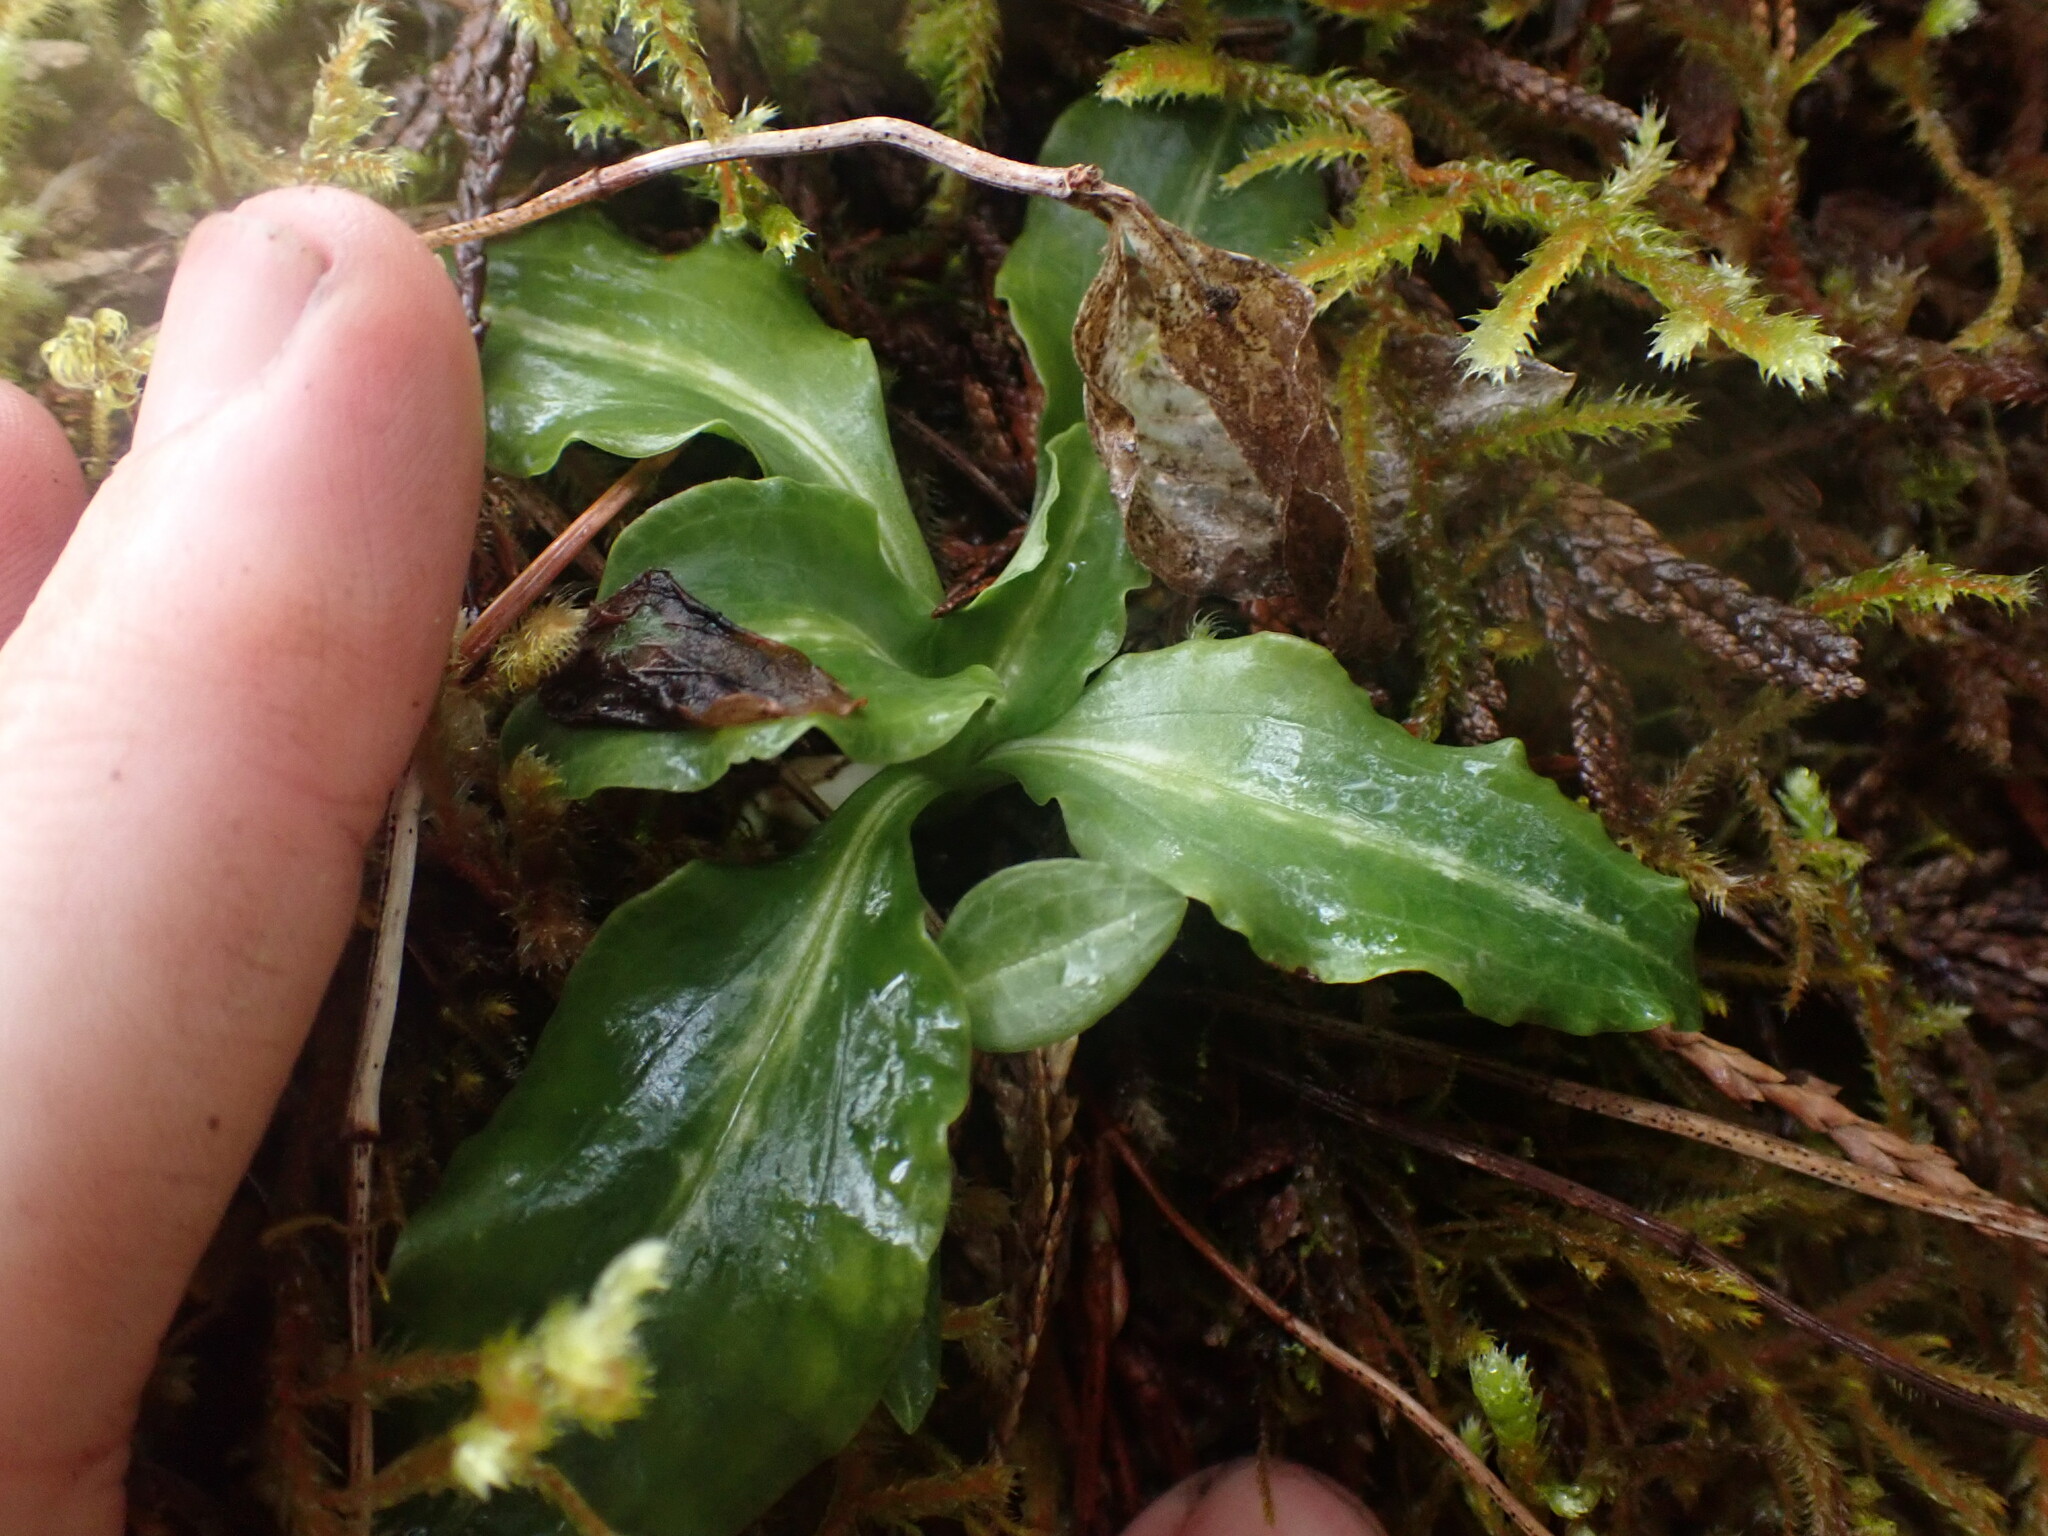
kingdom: Plantae
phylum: Tracheophyta
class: Liliopsida
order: Asparagales
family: Orchidaceae
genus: Goodyera
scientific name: Goodyera oblongifolia
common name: Giant rattlesnake-plantain
